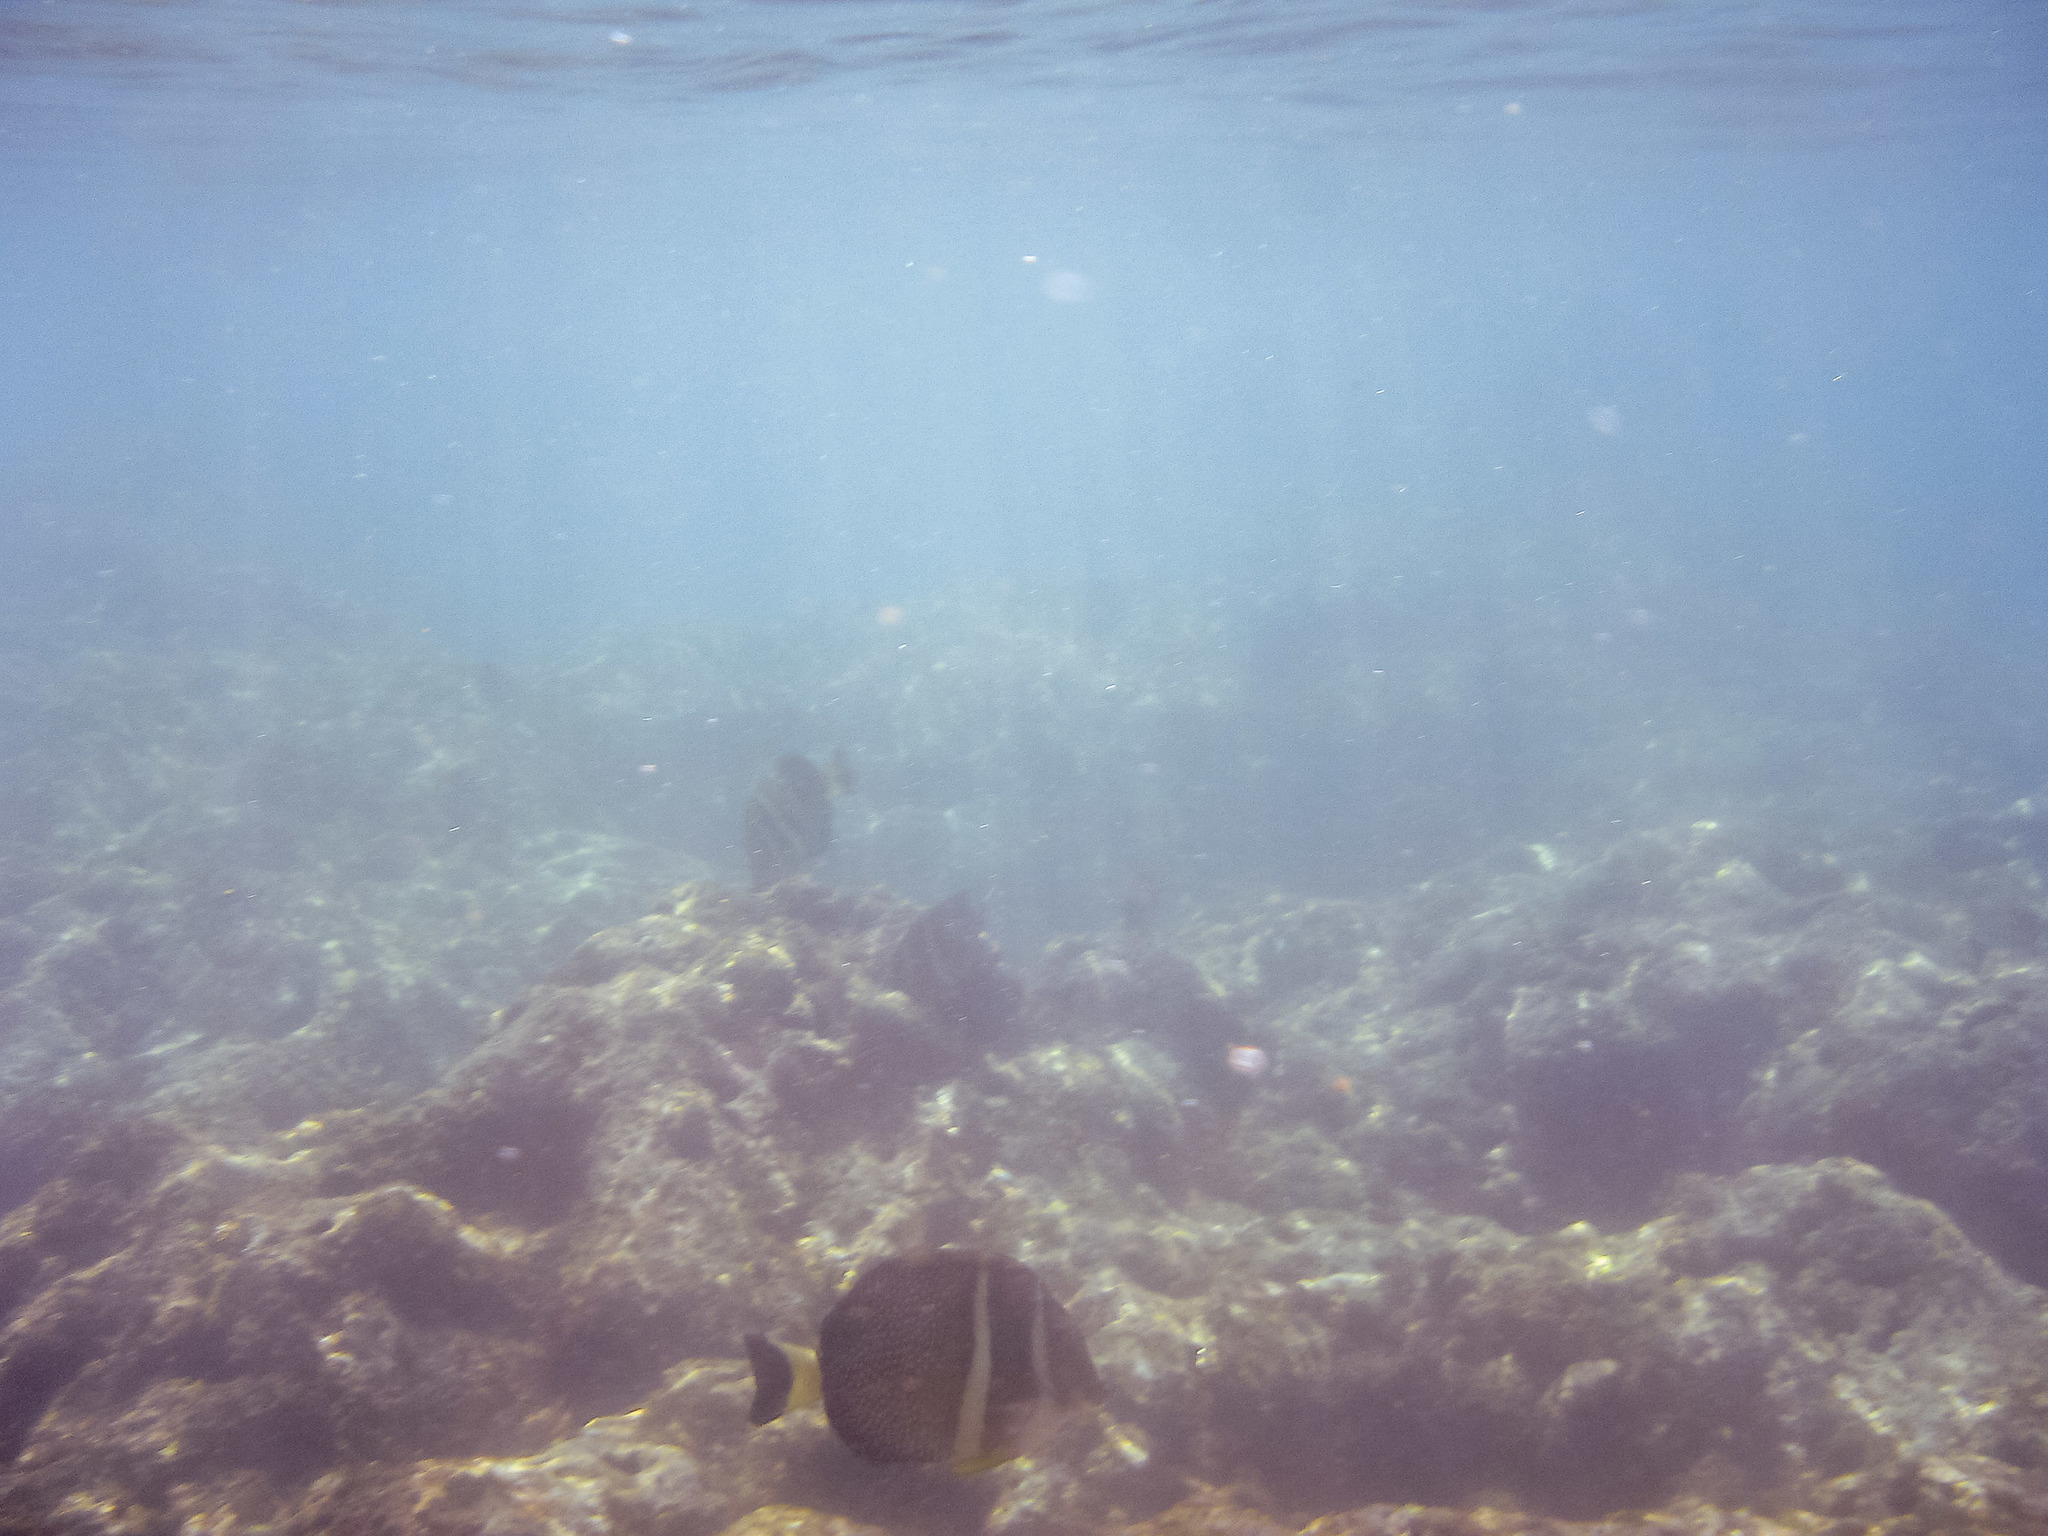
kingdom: Animalia
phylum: Chordata
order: Perciformes
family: Acanthuridae
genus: Acanthurus
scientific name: Acanthurus guttatus
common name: Whitespotted surgeonfish
